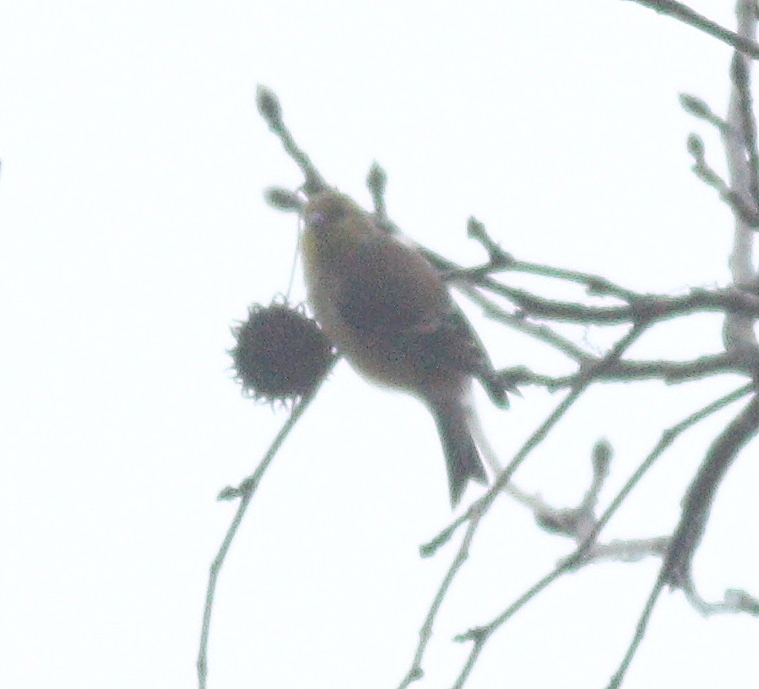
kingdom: Animalia
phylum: Chordata
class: Aves
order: Passeriformes
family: Fringillidae
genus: Spinus
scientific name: Spinus tristis
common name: American goldfinch
